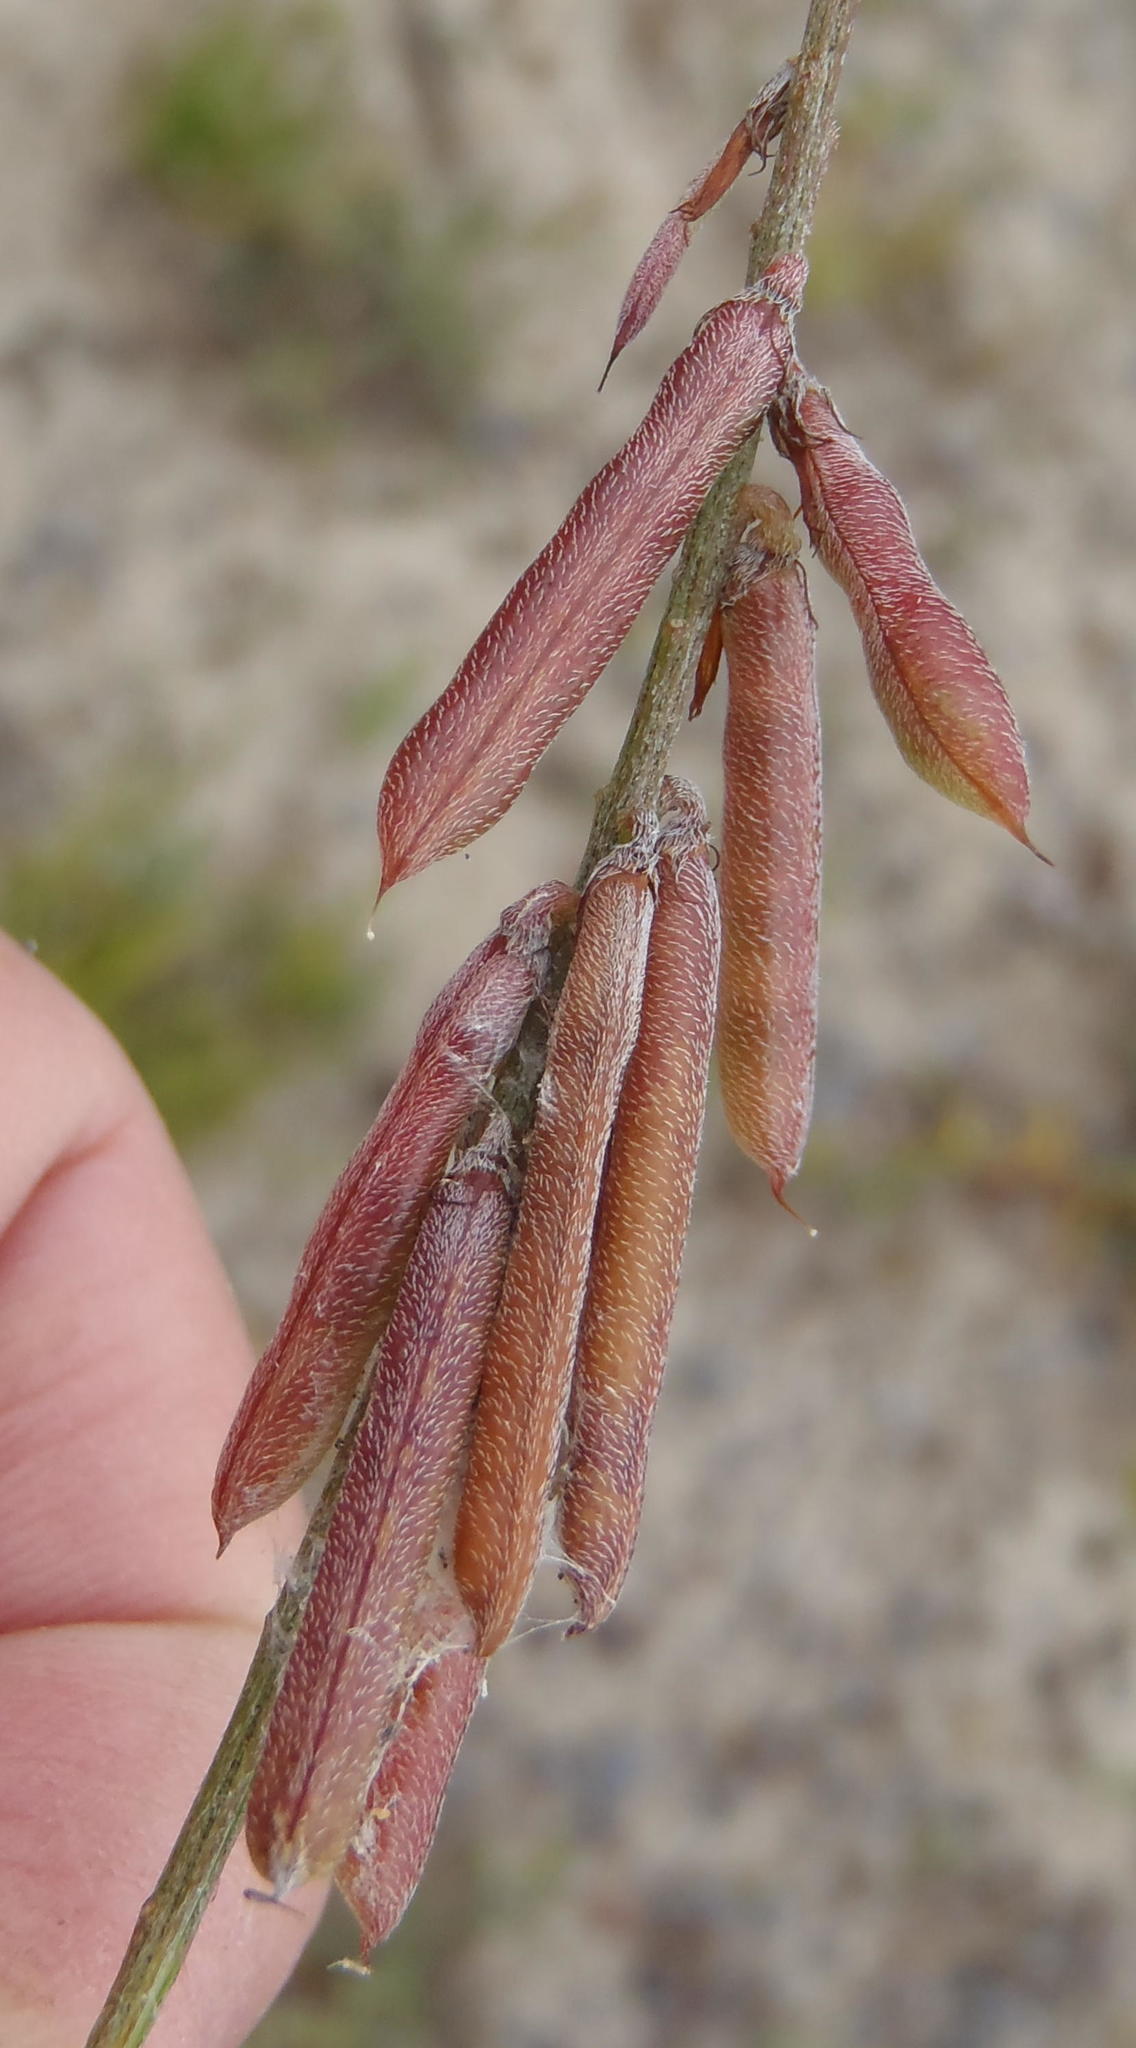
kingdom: Plantae
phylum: Tracheophyta
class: Magnoliopsida
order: Fabales
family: Fabaceae
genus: Indigofera
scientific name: Indigofera heterophylla
